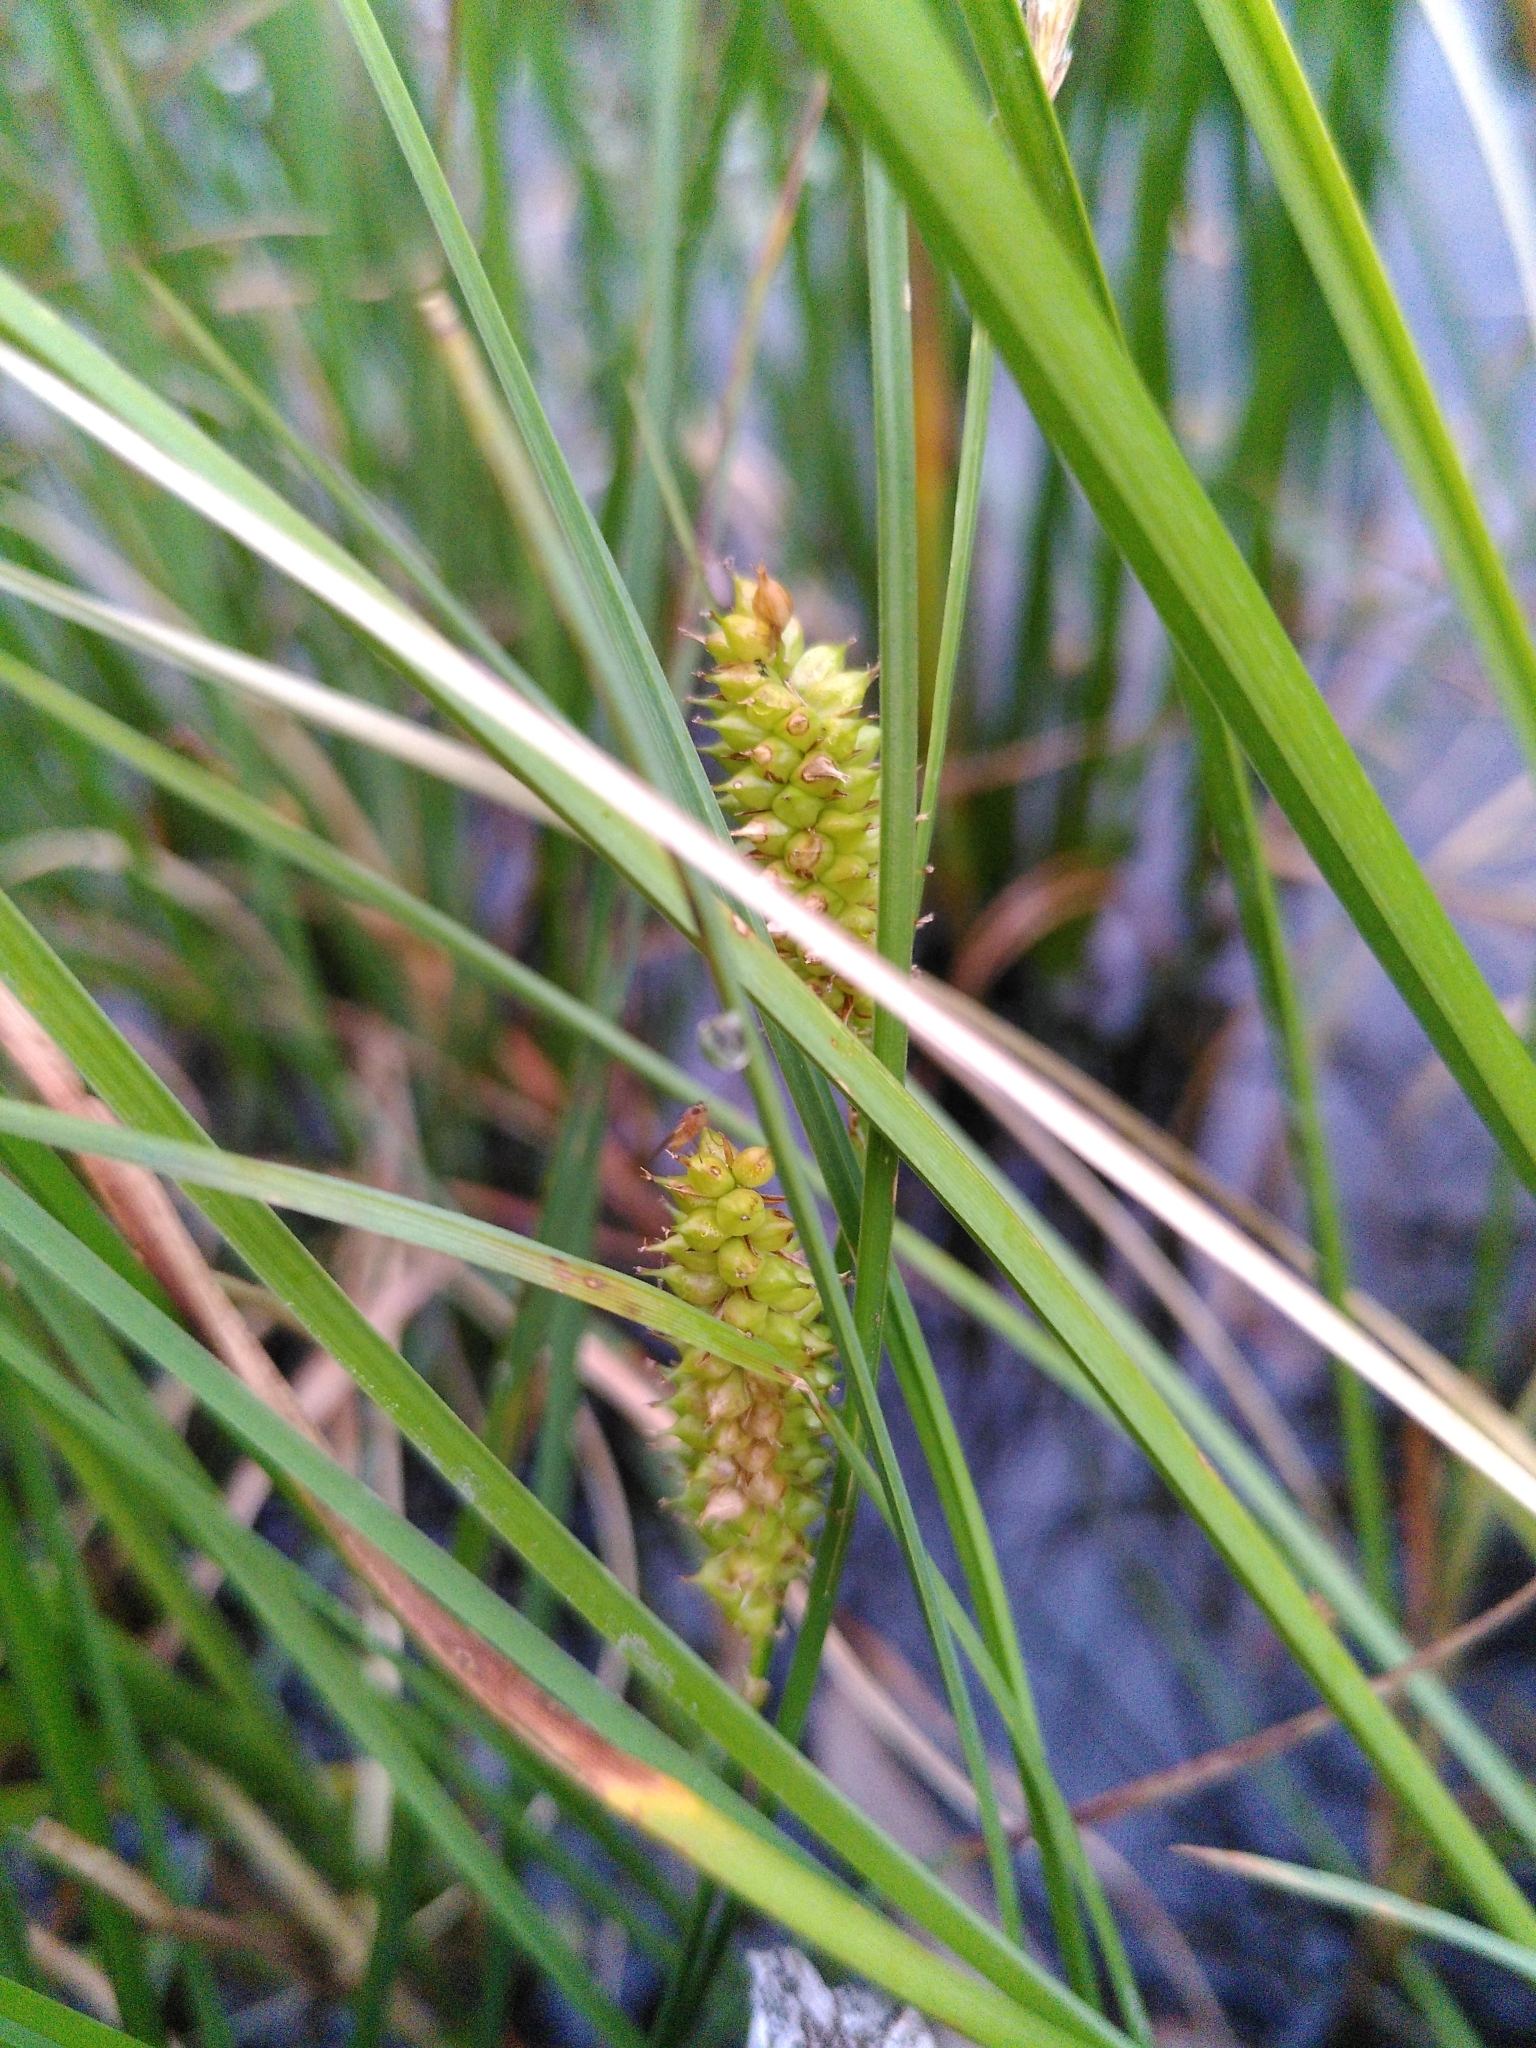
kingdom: Plantae
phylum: Tracheophyta
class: Liliopsida
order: Poales
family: Cyperaceae
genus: Carex
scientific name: Carex rostrata
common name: Bottle sedge
